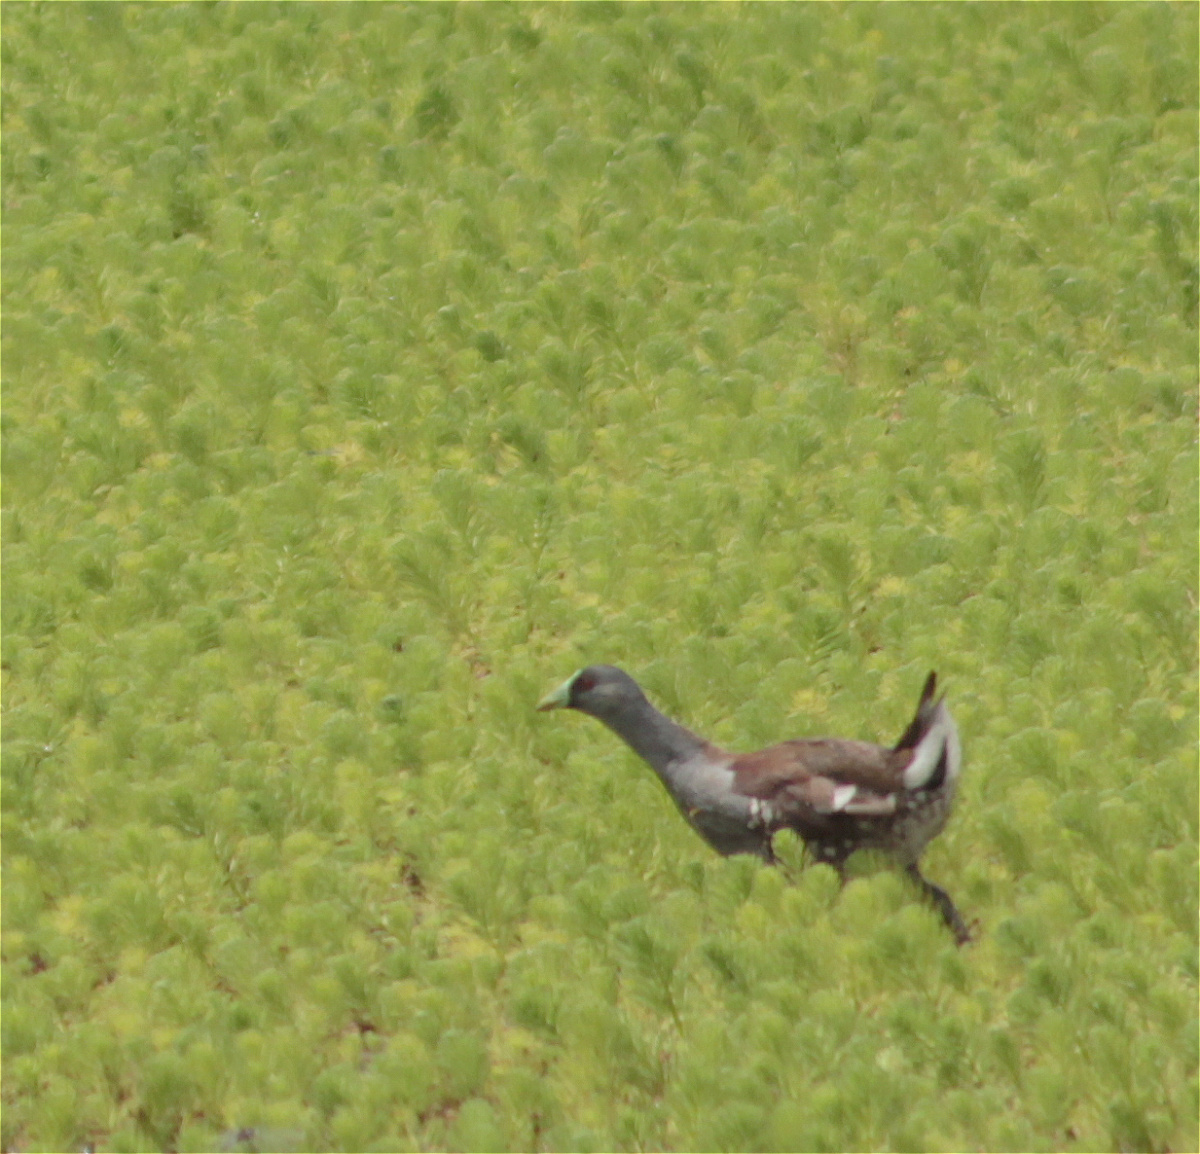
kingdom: Animalia
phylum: Chordata
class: Aves
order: Gruiformes
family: Rallidae
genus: Gallinula
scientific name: Gallinula melanops
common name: Spot-flanked gallinule
